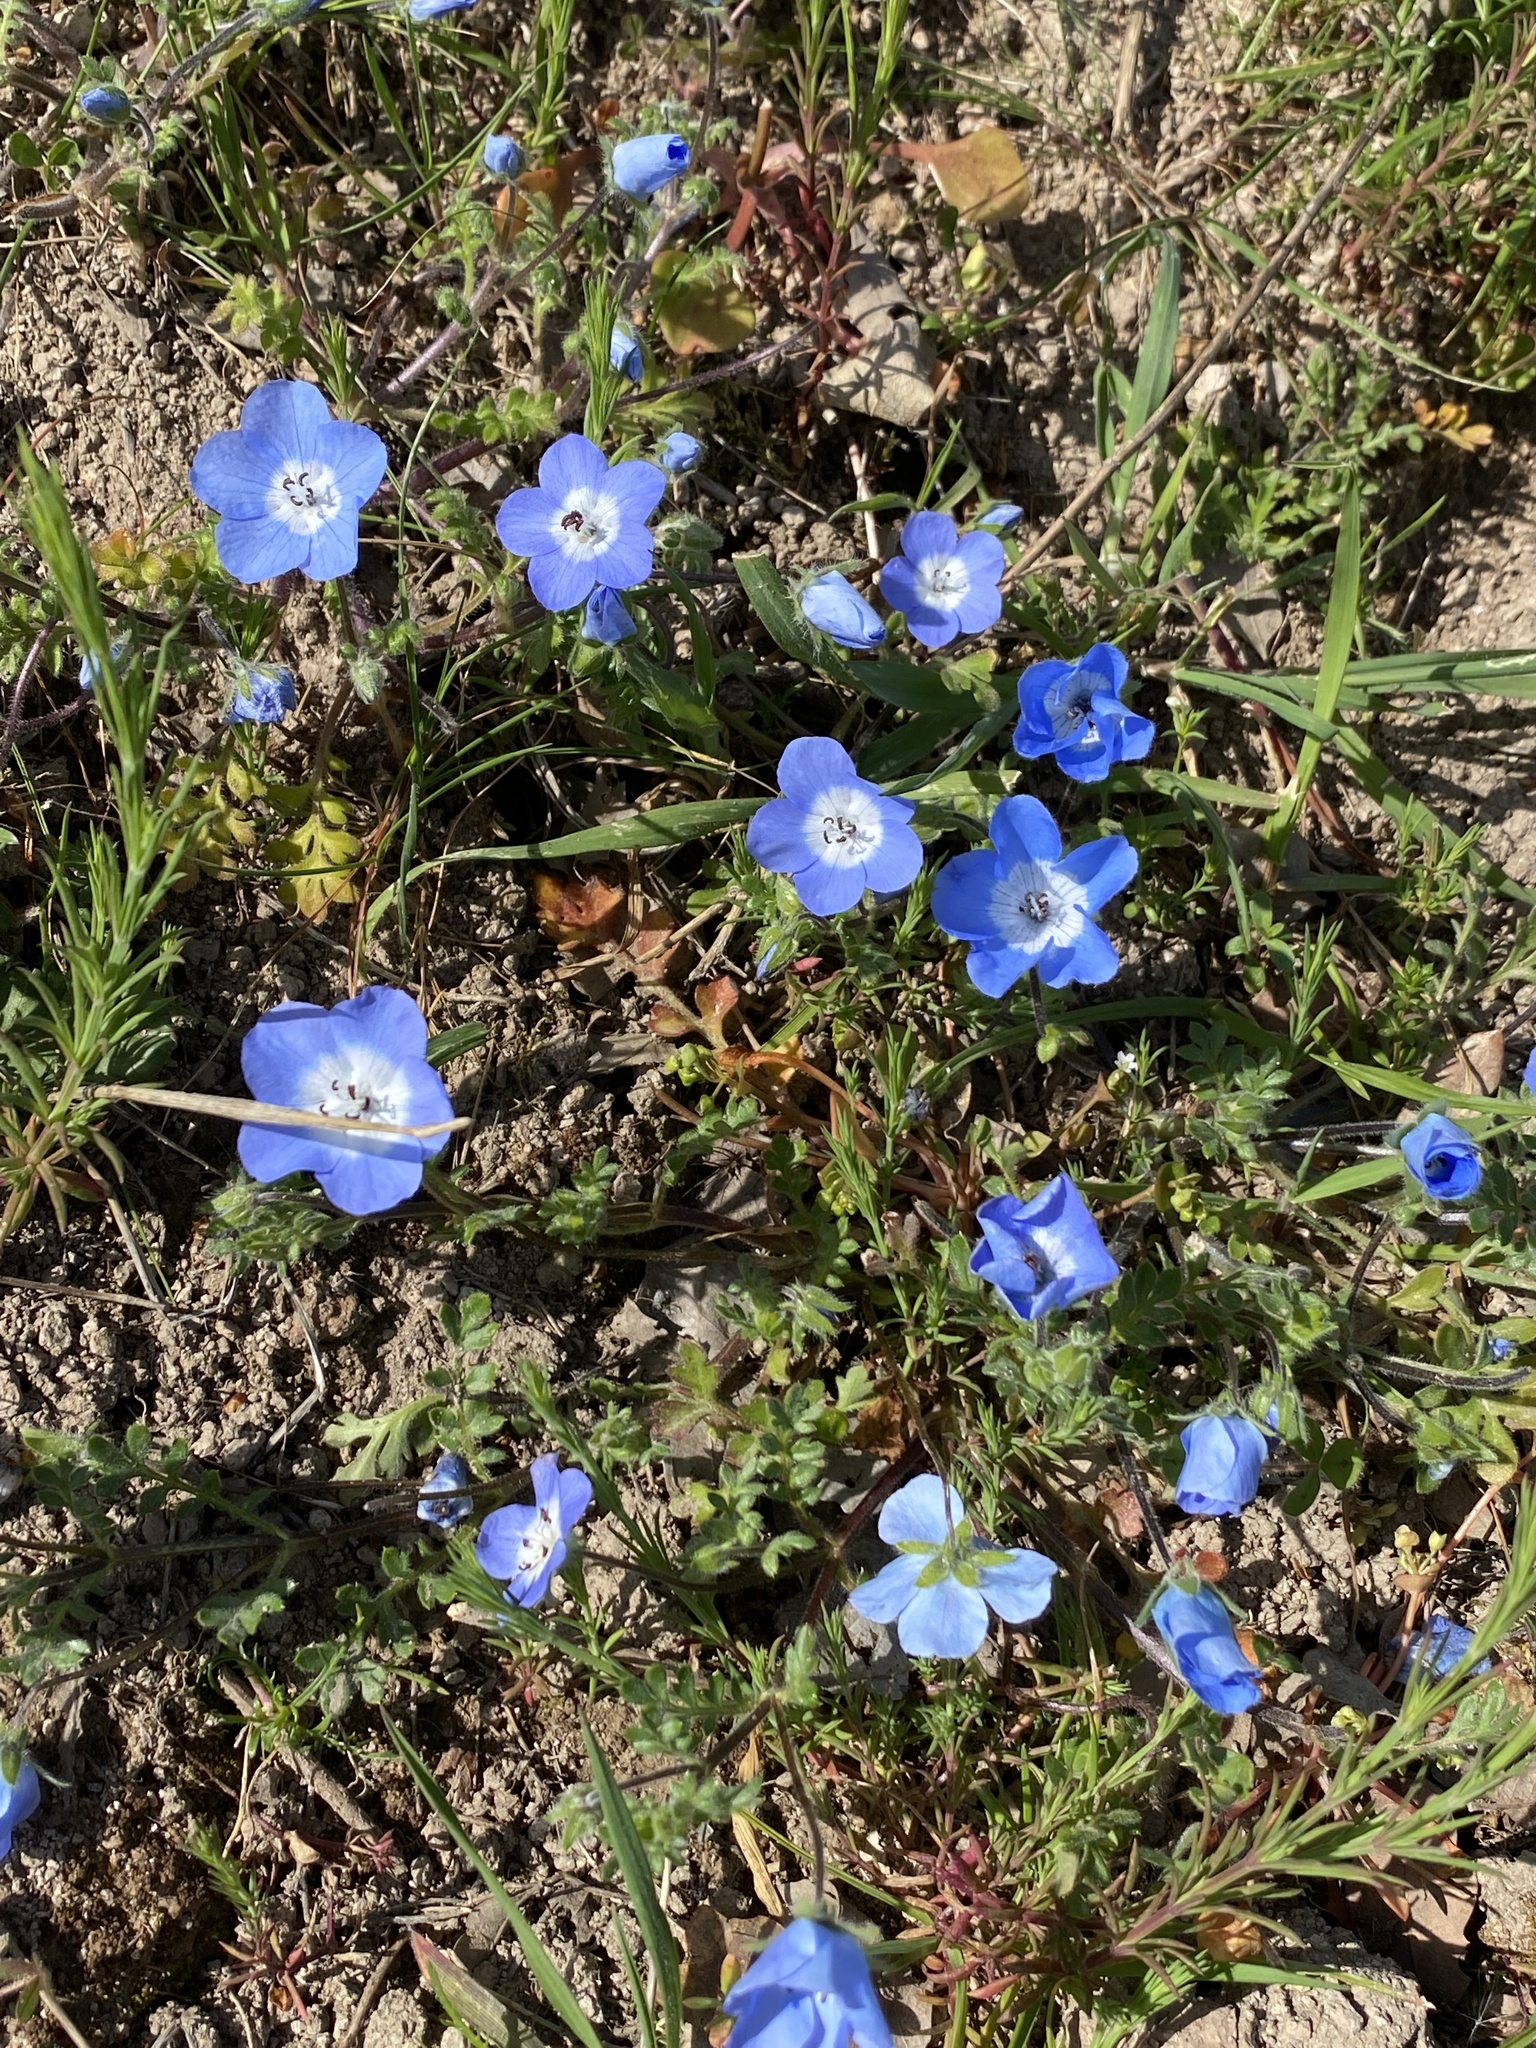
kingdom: Plantae
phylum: Tracheophyta
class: Magnoliopsida
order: Boraginales
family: Hydrophyllaceae
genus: Nemophila
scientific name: Nemophila menziesii
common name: Baby's-blue-eyes
